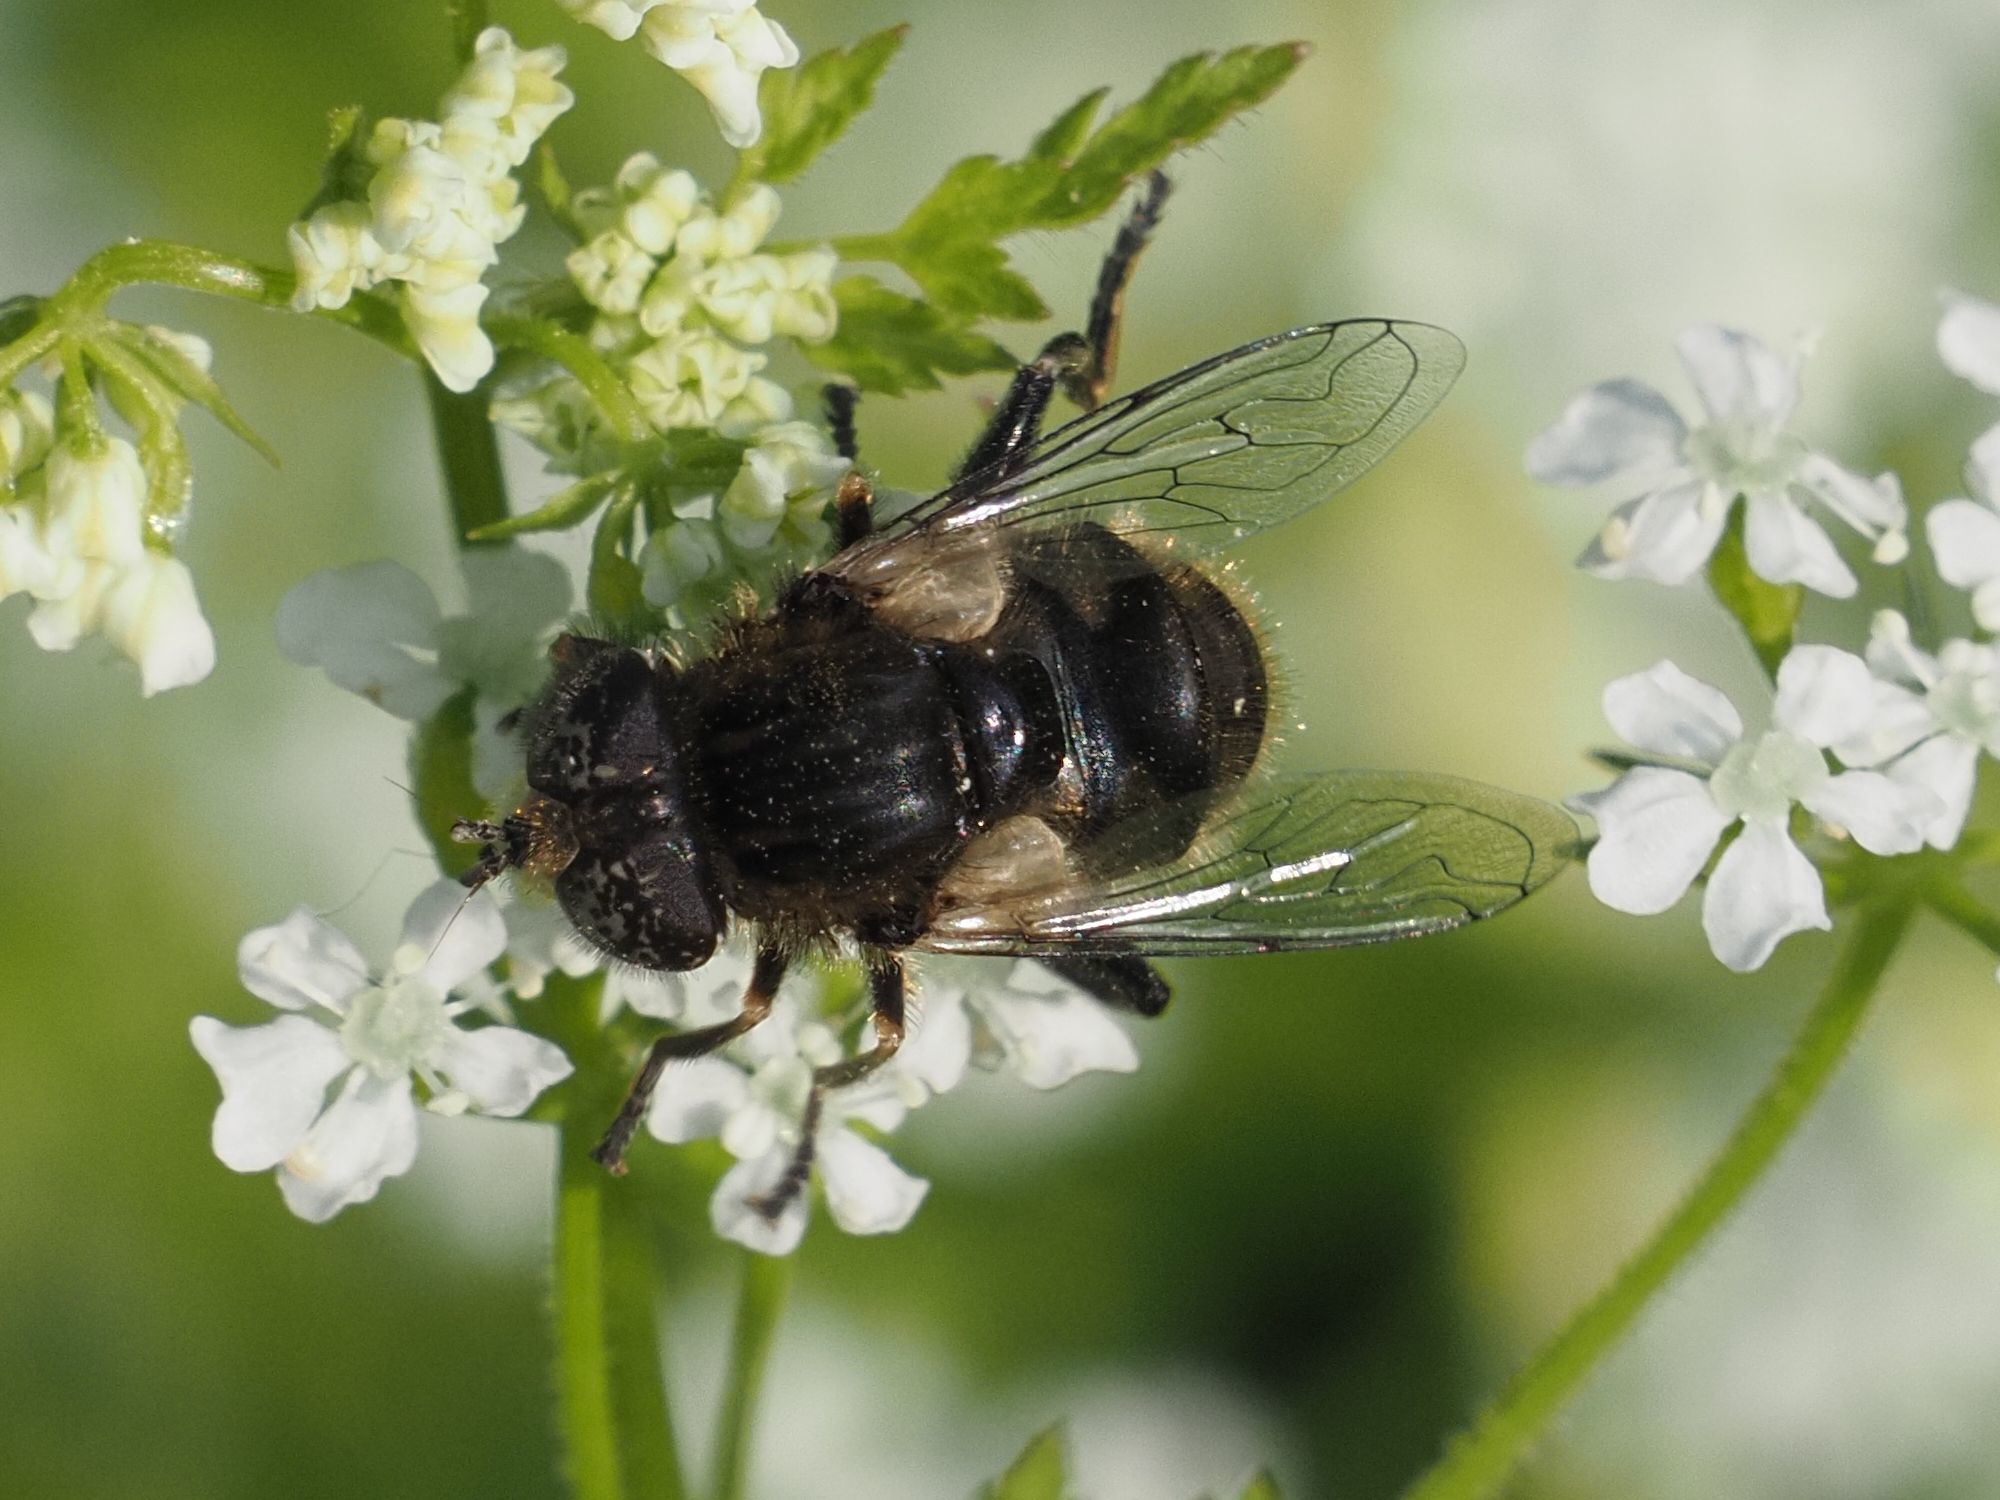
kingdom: Animalia
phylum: Arthropoda
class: Insecta
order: Diptera
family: Syrphidae
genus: Eristalinus
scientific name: Eristalinus sepulchralis
